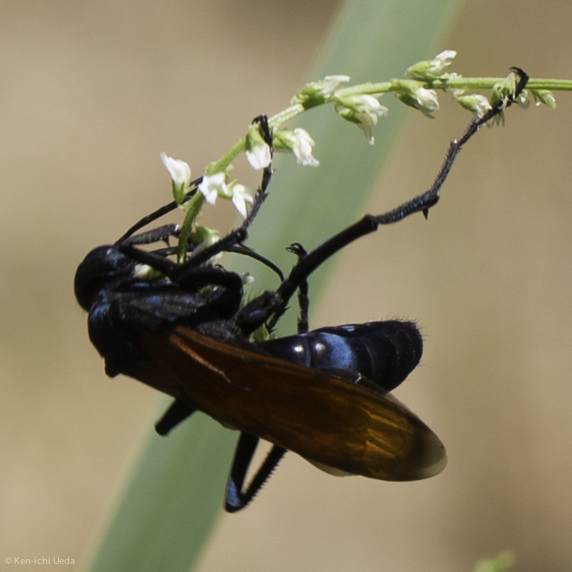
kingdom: Animalia
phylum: Arthropoda
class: Insecta
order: Hymenoptera
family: Pompilidae
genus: Pepsis
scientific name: Pepsis thisbe
